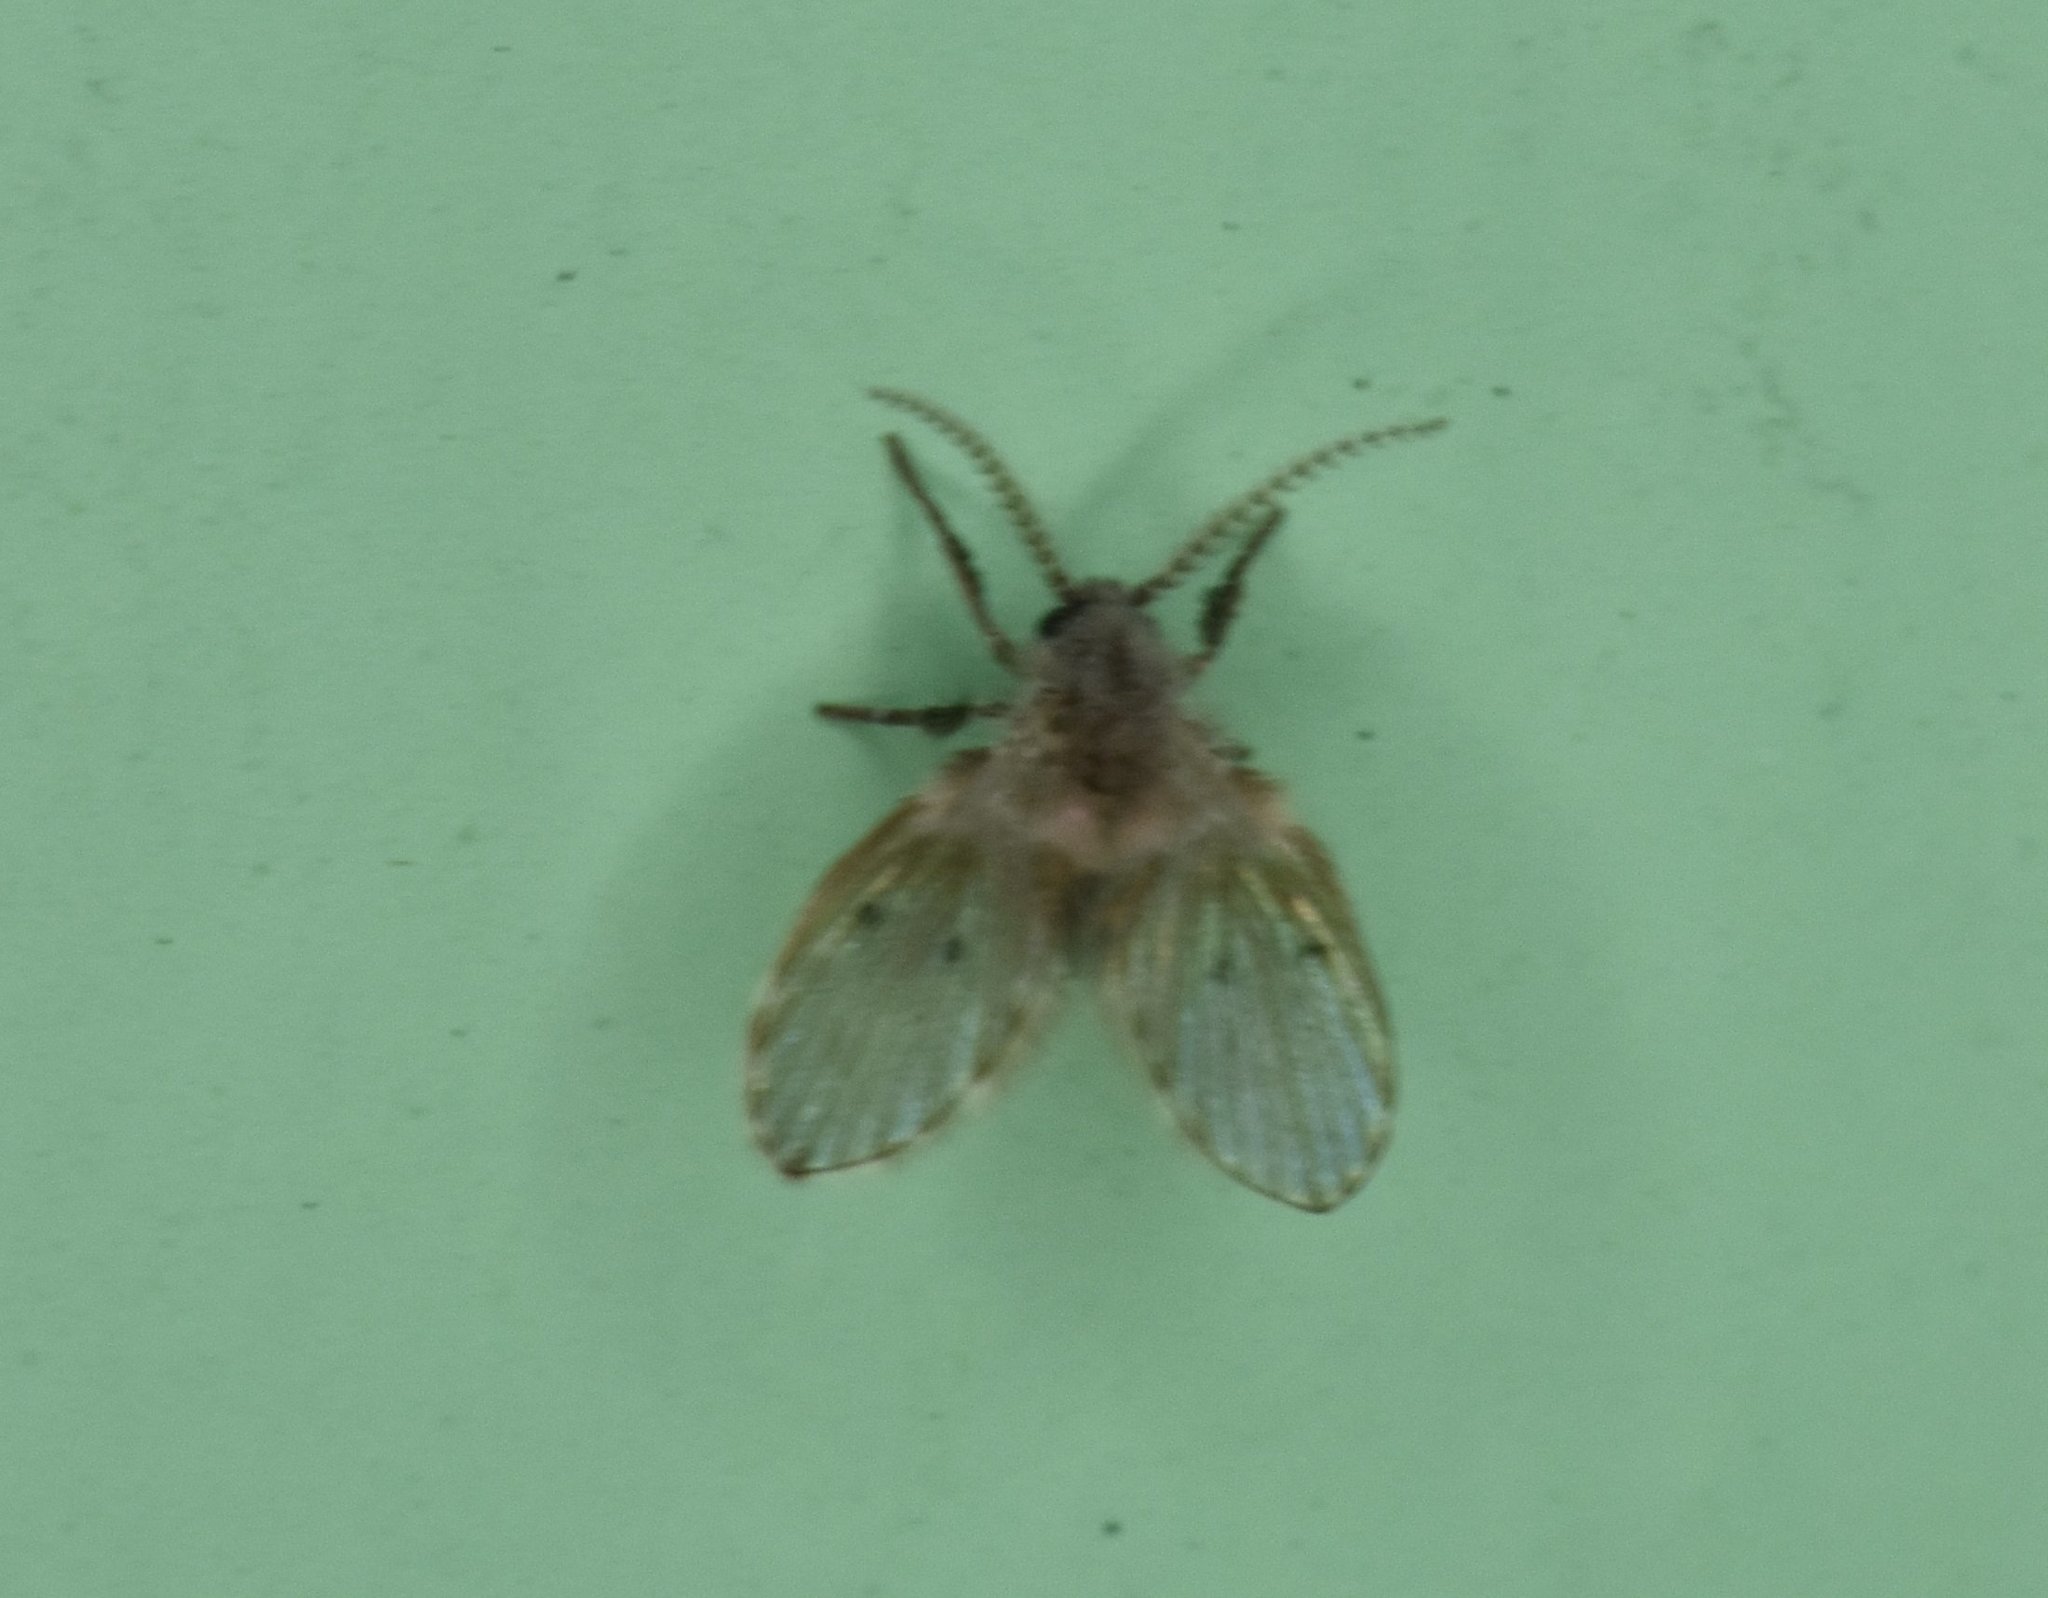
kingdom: Animalia
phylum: Arthropoda
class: Insecta
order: Diptera
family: Psychodidae
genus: Clogmia
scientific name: Clogmia albipunctatus
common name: White-spotted moth fly
